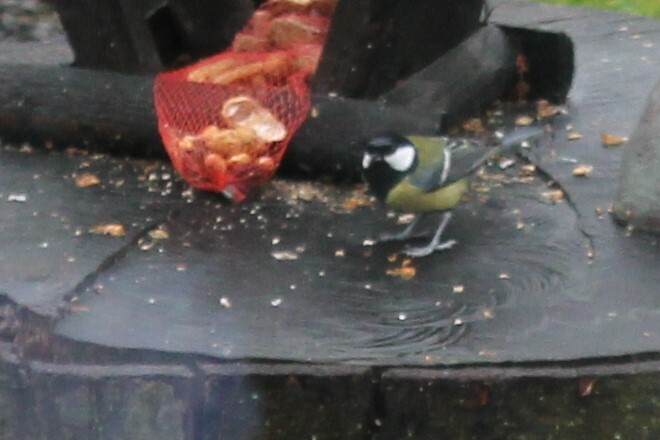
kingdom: Animalia
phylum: Chordata
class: Aves
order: Passeriformes
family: Paridae
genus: Parus
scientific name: Parus major
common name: Great tit
